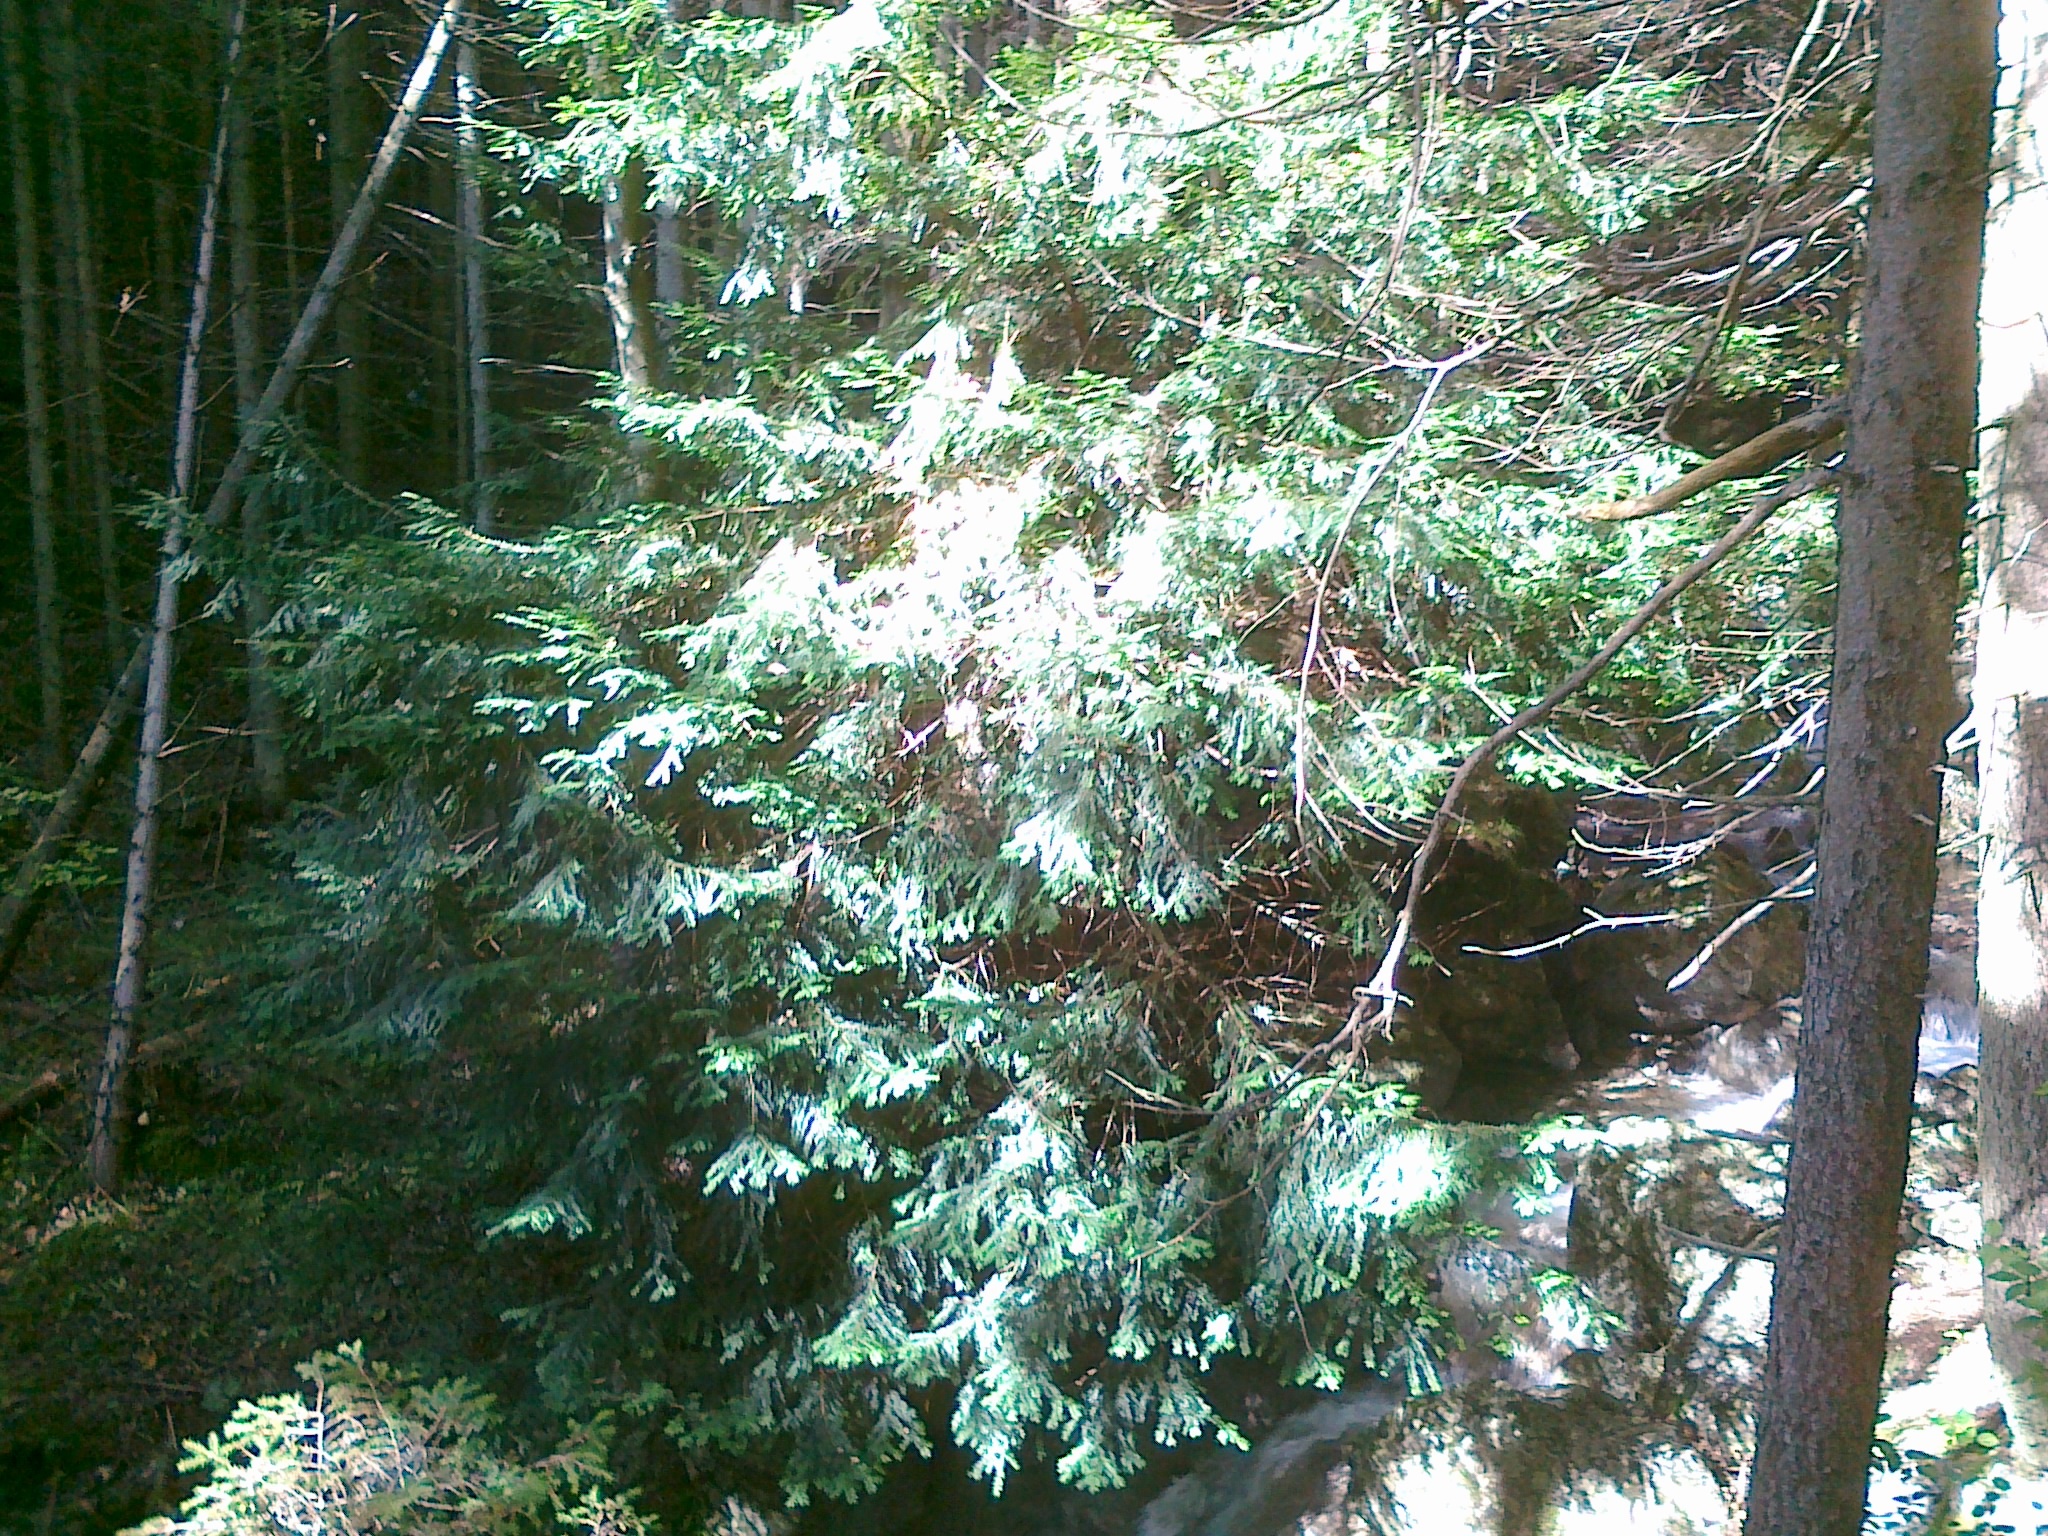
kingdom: Plantae
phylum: Tracheophyta
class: Pinopsida
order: Pinales
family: Taxaceae
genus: Taxus
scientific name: Taxus baccata
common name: Yew
